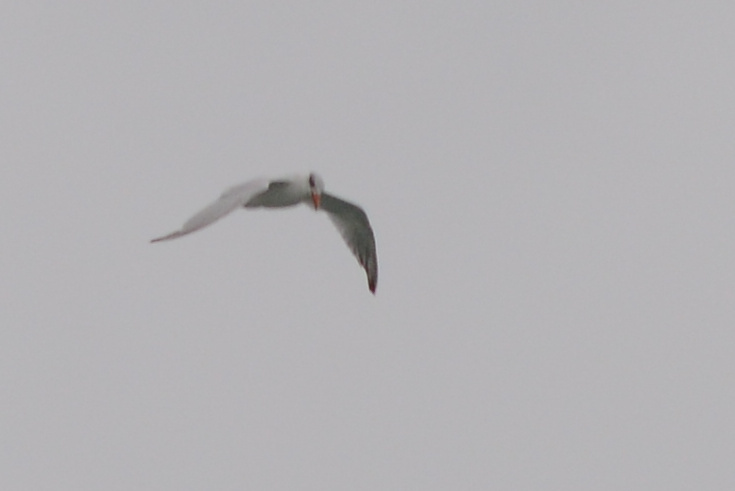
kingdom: Animalia
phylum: Chordata
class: Aves
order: Charadriiformes
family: Laridae
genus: Hydroprogne
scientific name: Hydroprogne caspia
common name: Caspian tern
